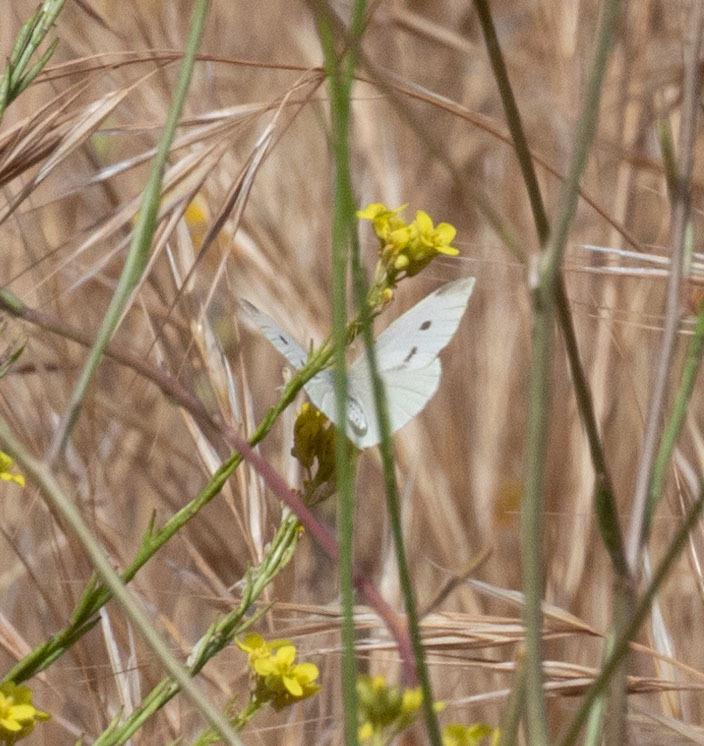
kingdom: Animalia
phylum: Arthropoda
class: Insecta
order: Lepidoptera
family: Pieridae
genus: Pieris
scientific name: Pieris rapae
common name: Small white
